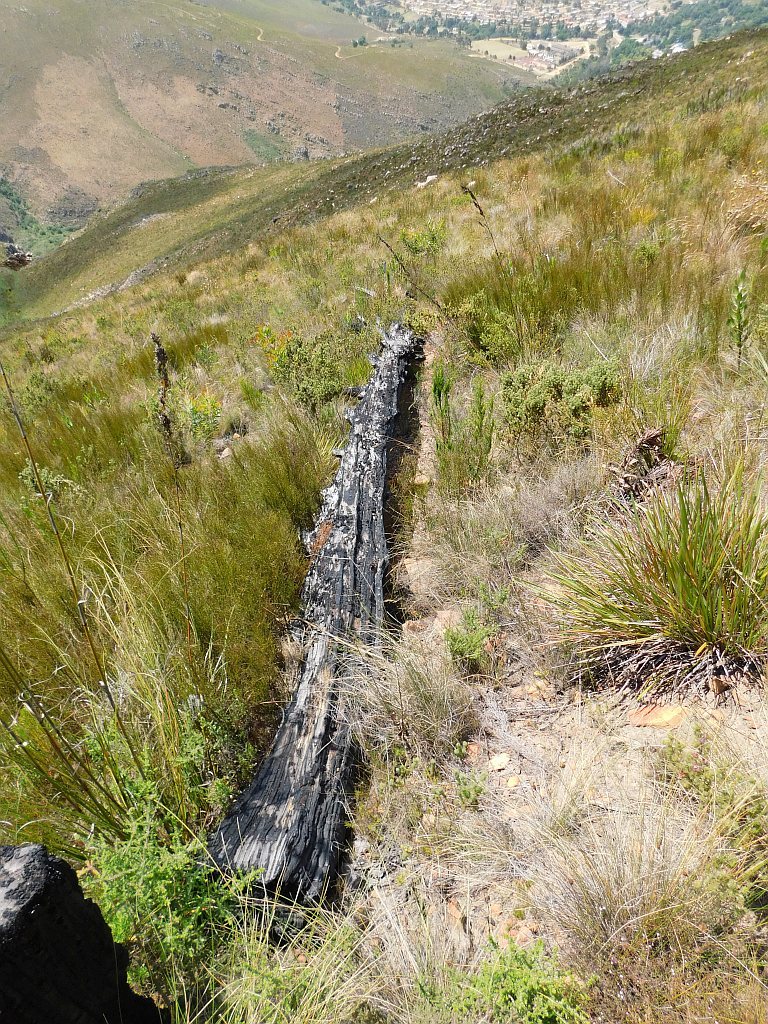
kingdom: Plantae
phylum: Tracheophyta
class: Pinopsida
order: Pinales
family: Pinaceae
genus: Pinus
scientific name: Pinus pinaster
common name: Maritime pine
